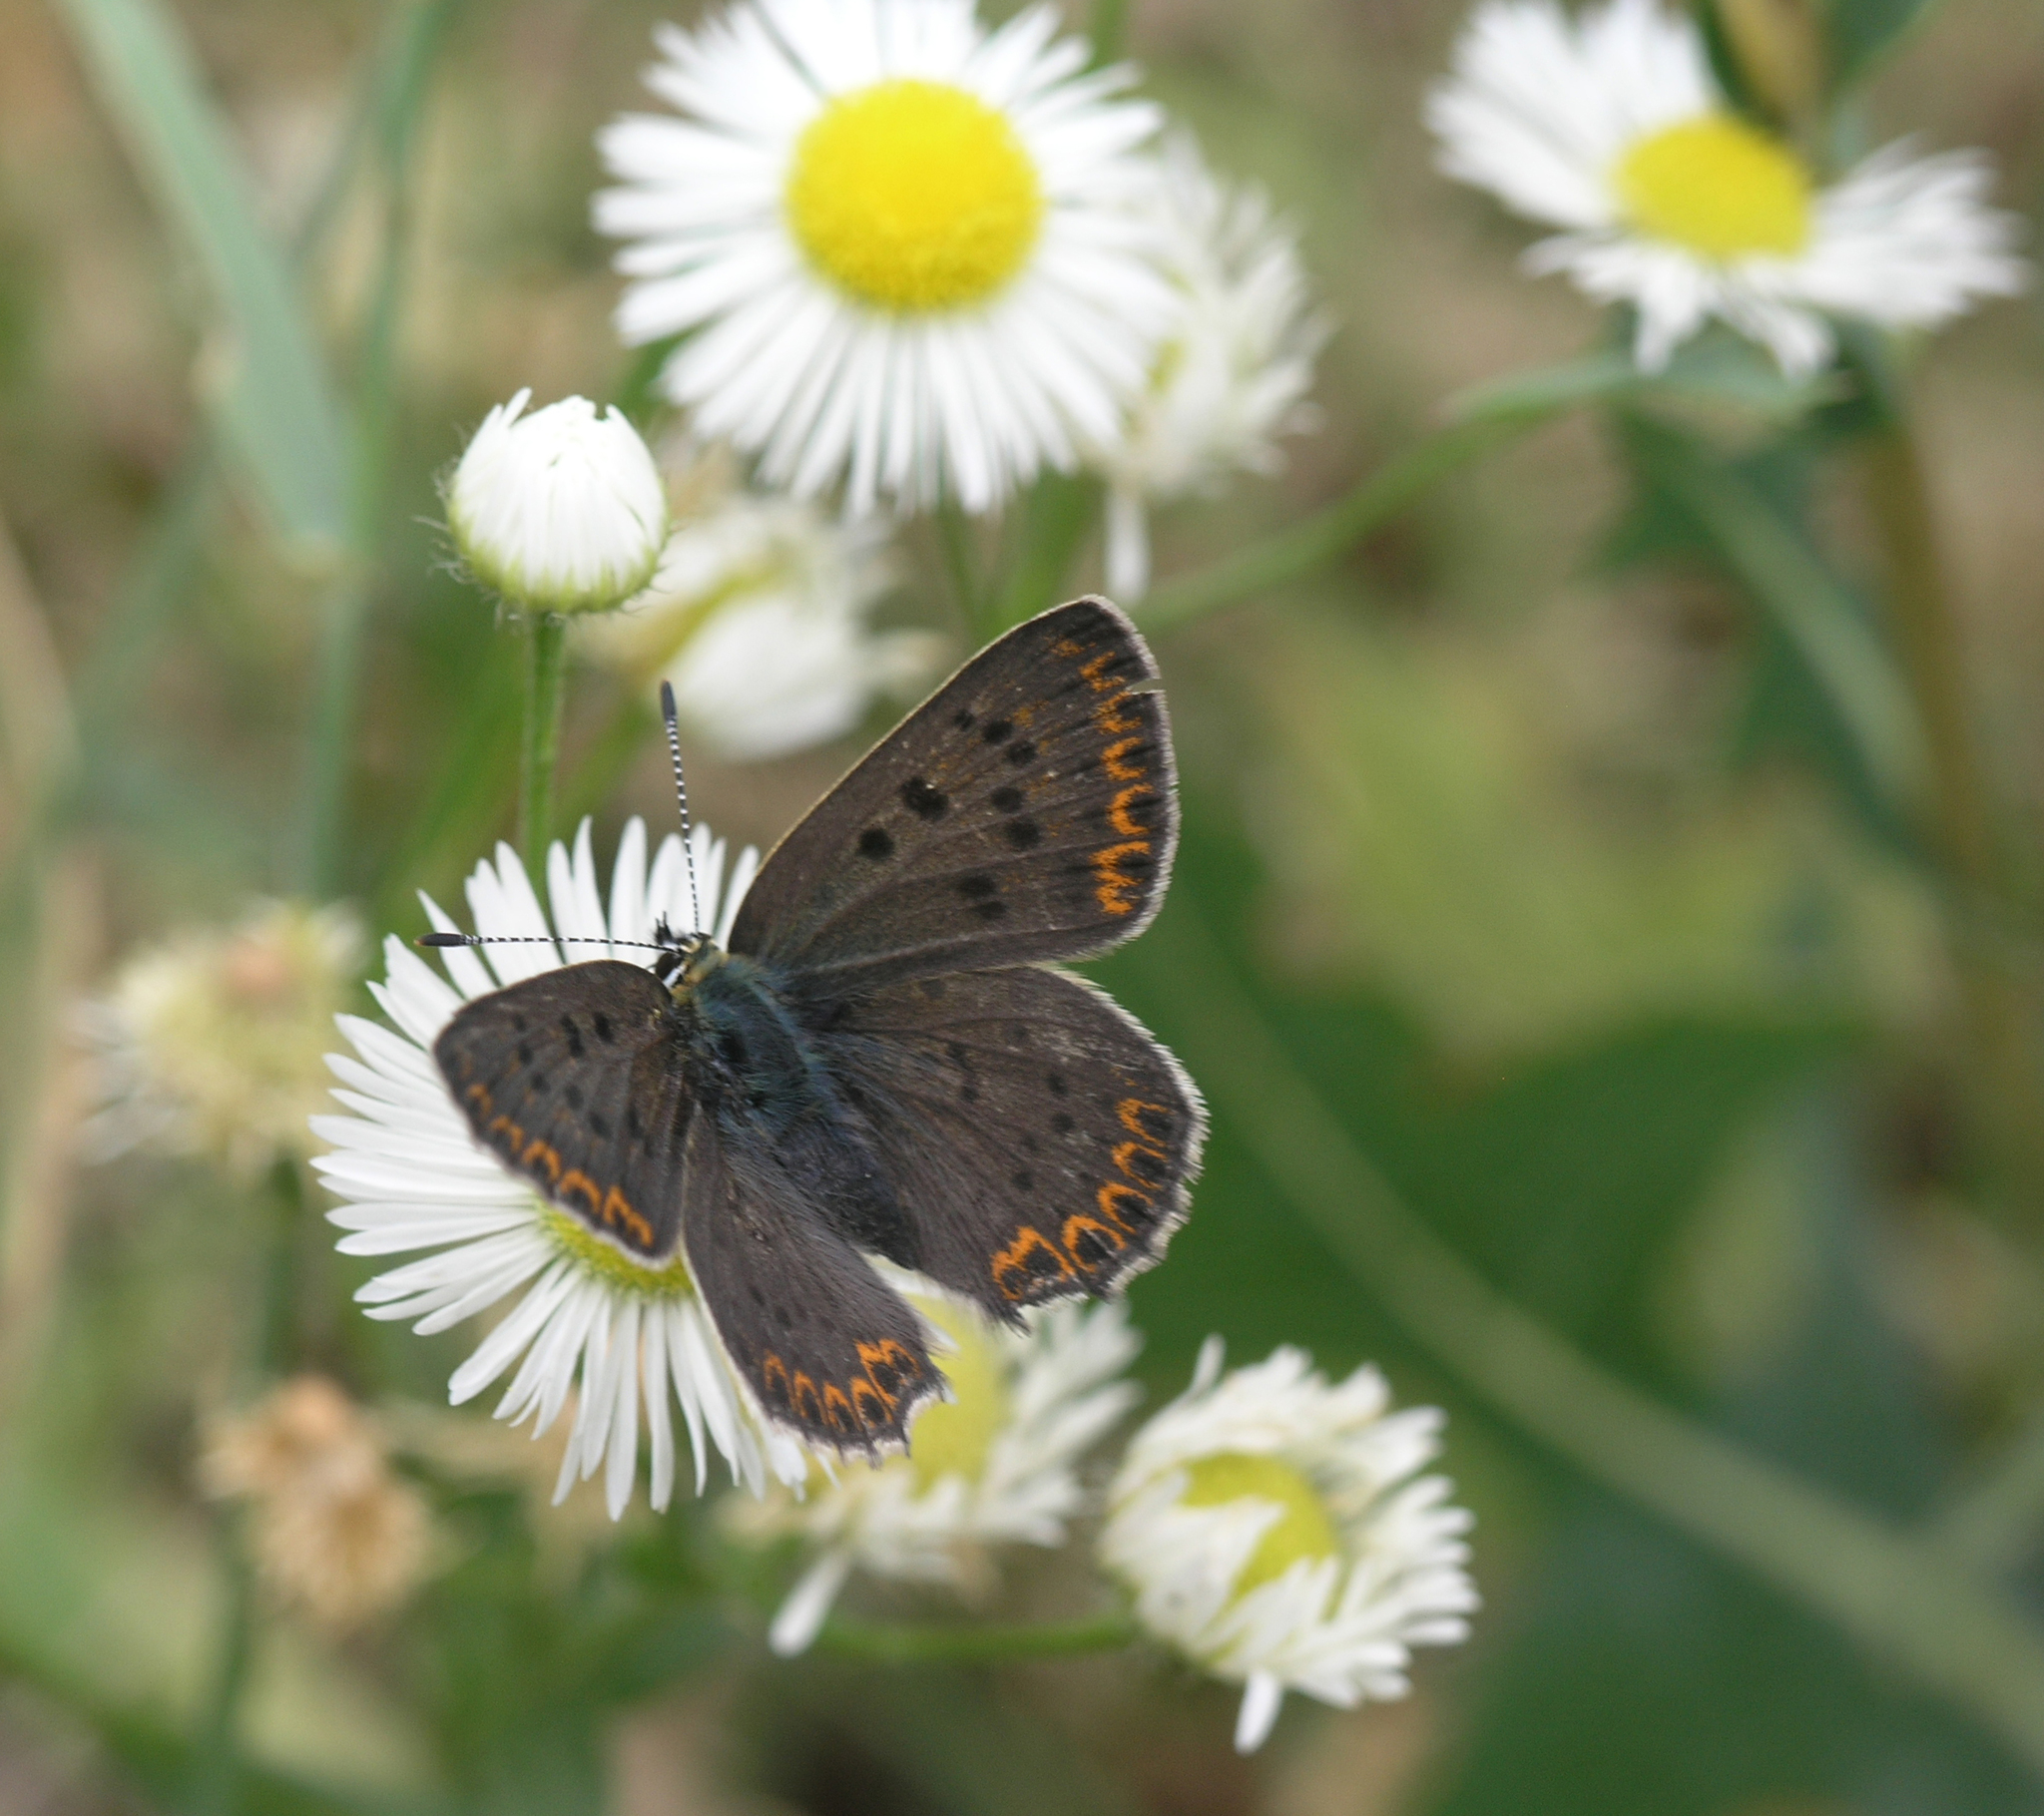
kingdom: Animalia
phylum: Arthropoda
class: Insecta
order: Lepidoptera
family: Lycaenidae
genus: Loweia
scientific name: Loweia tityrus
